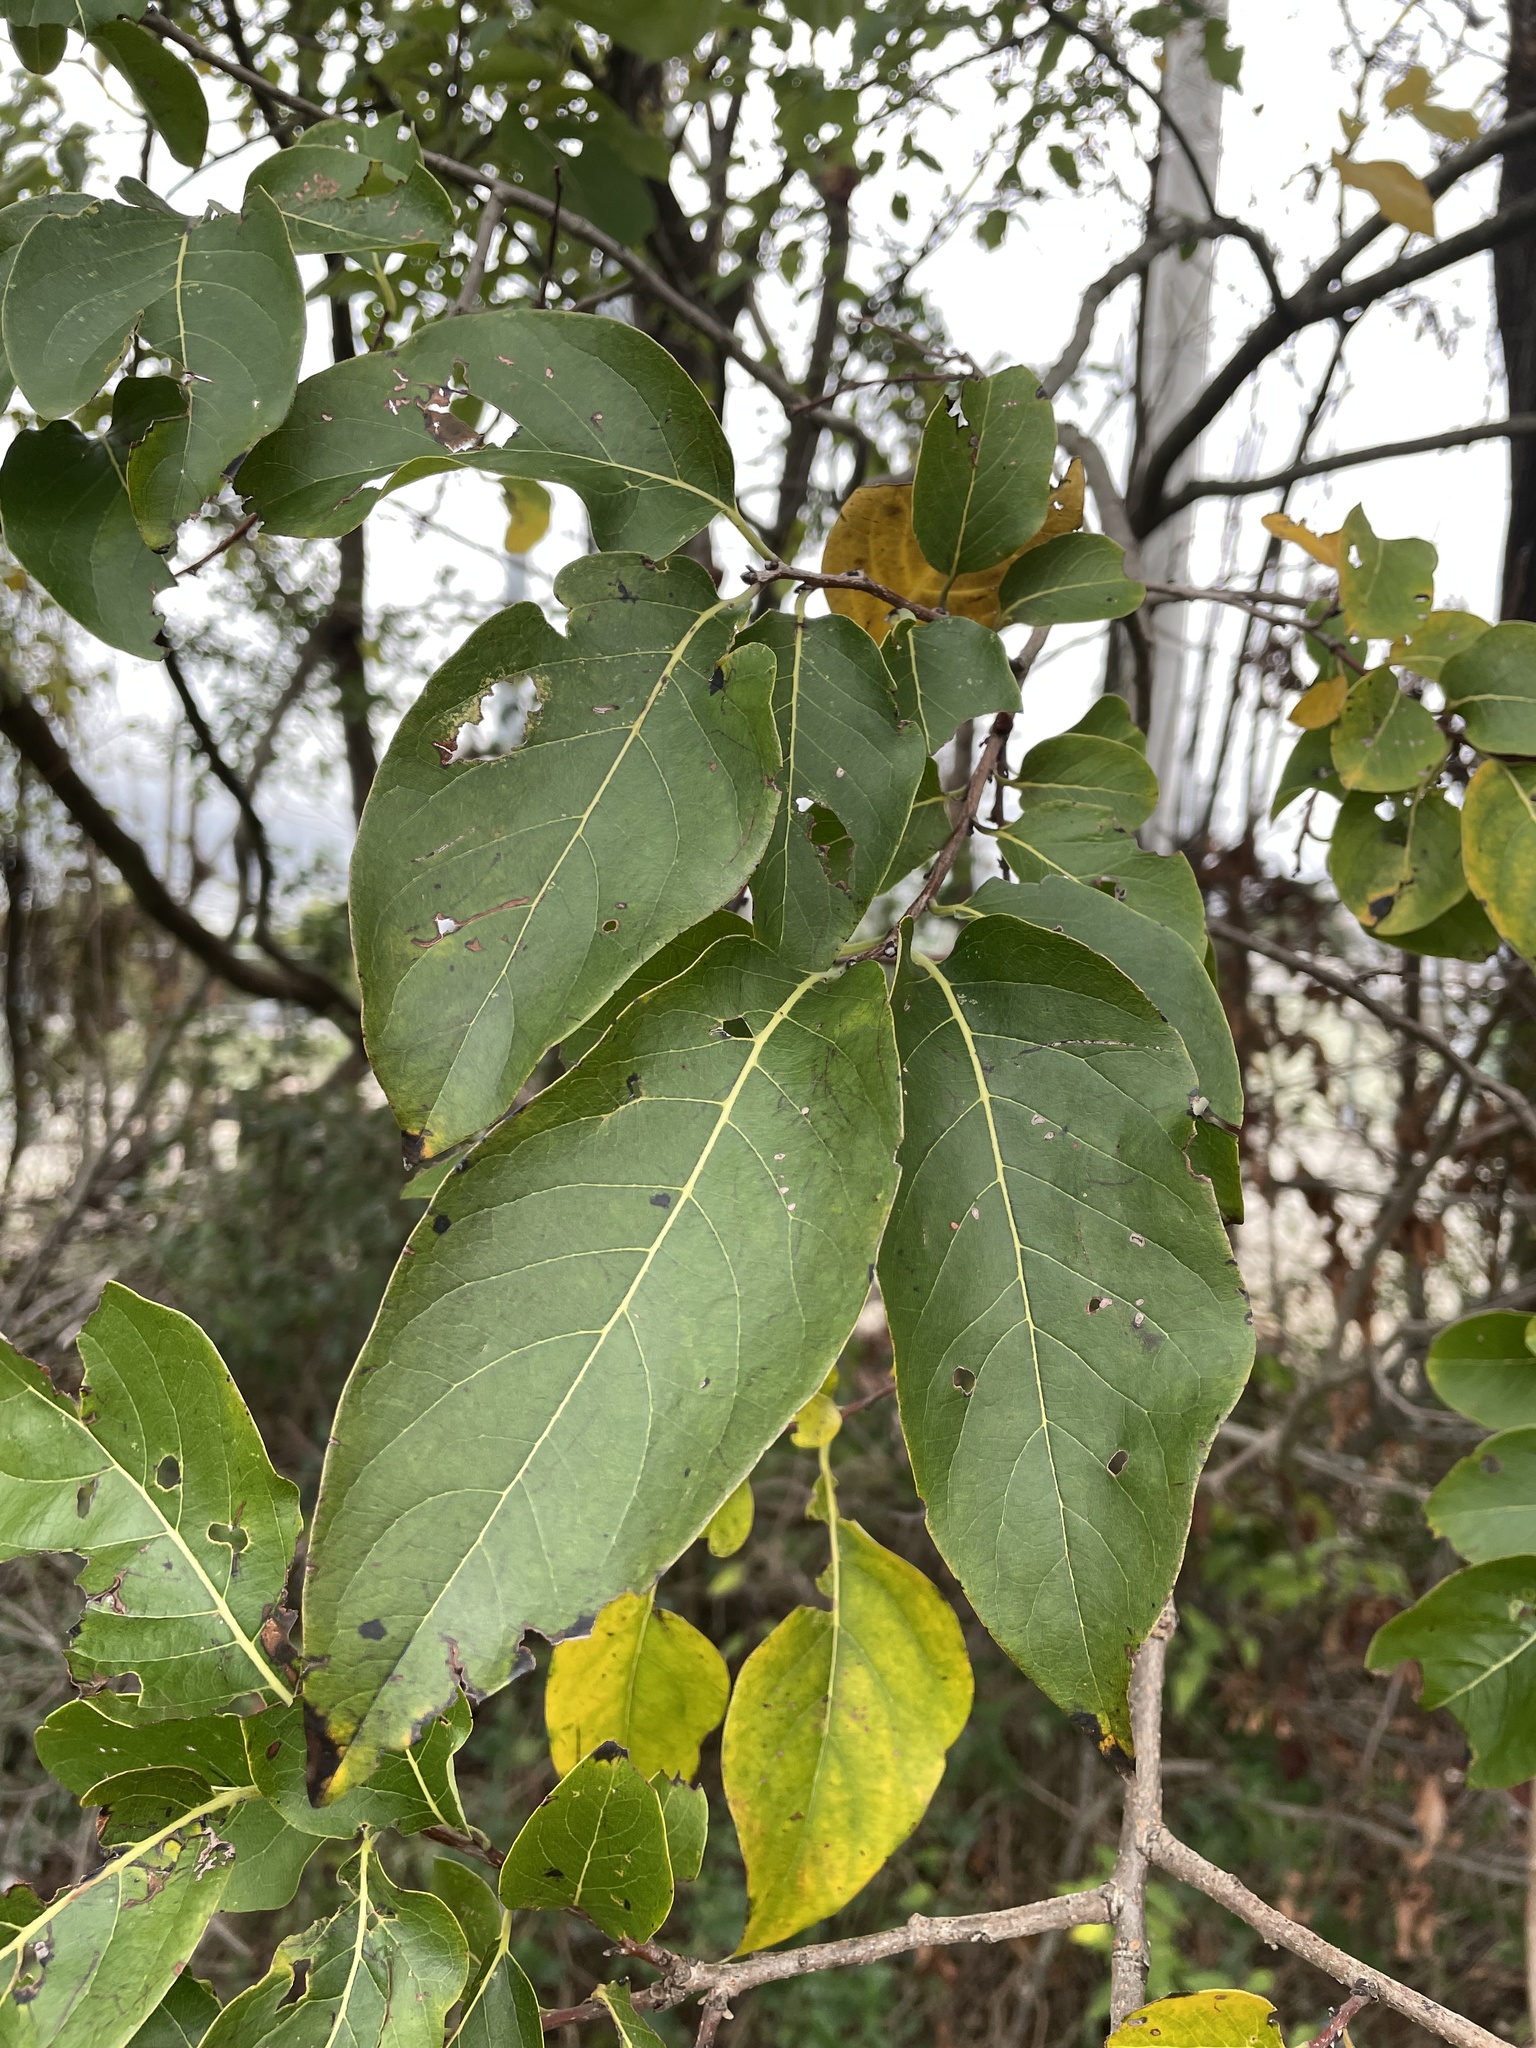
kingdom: Plantae
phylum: Tracheophyta
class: Magnoliopsida
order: Ericales
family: Ebenaceae
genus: Diospyros
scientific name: Diospyros virginiana
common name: Persimmon
